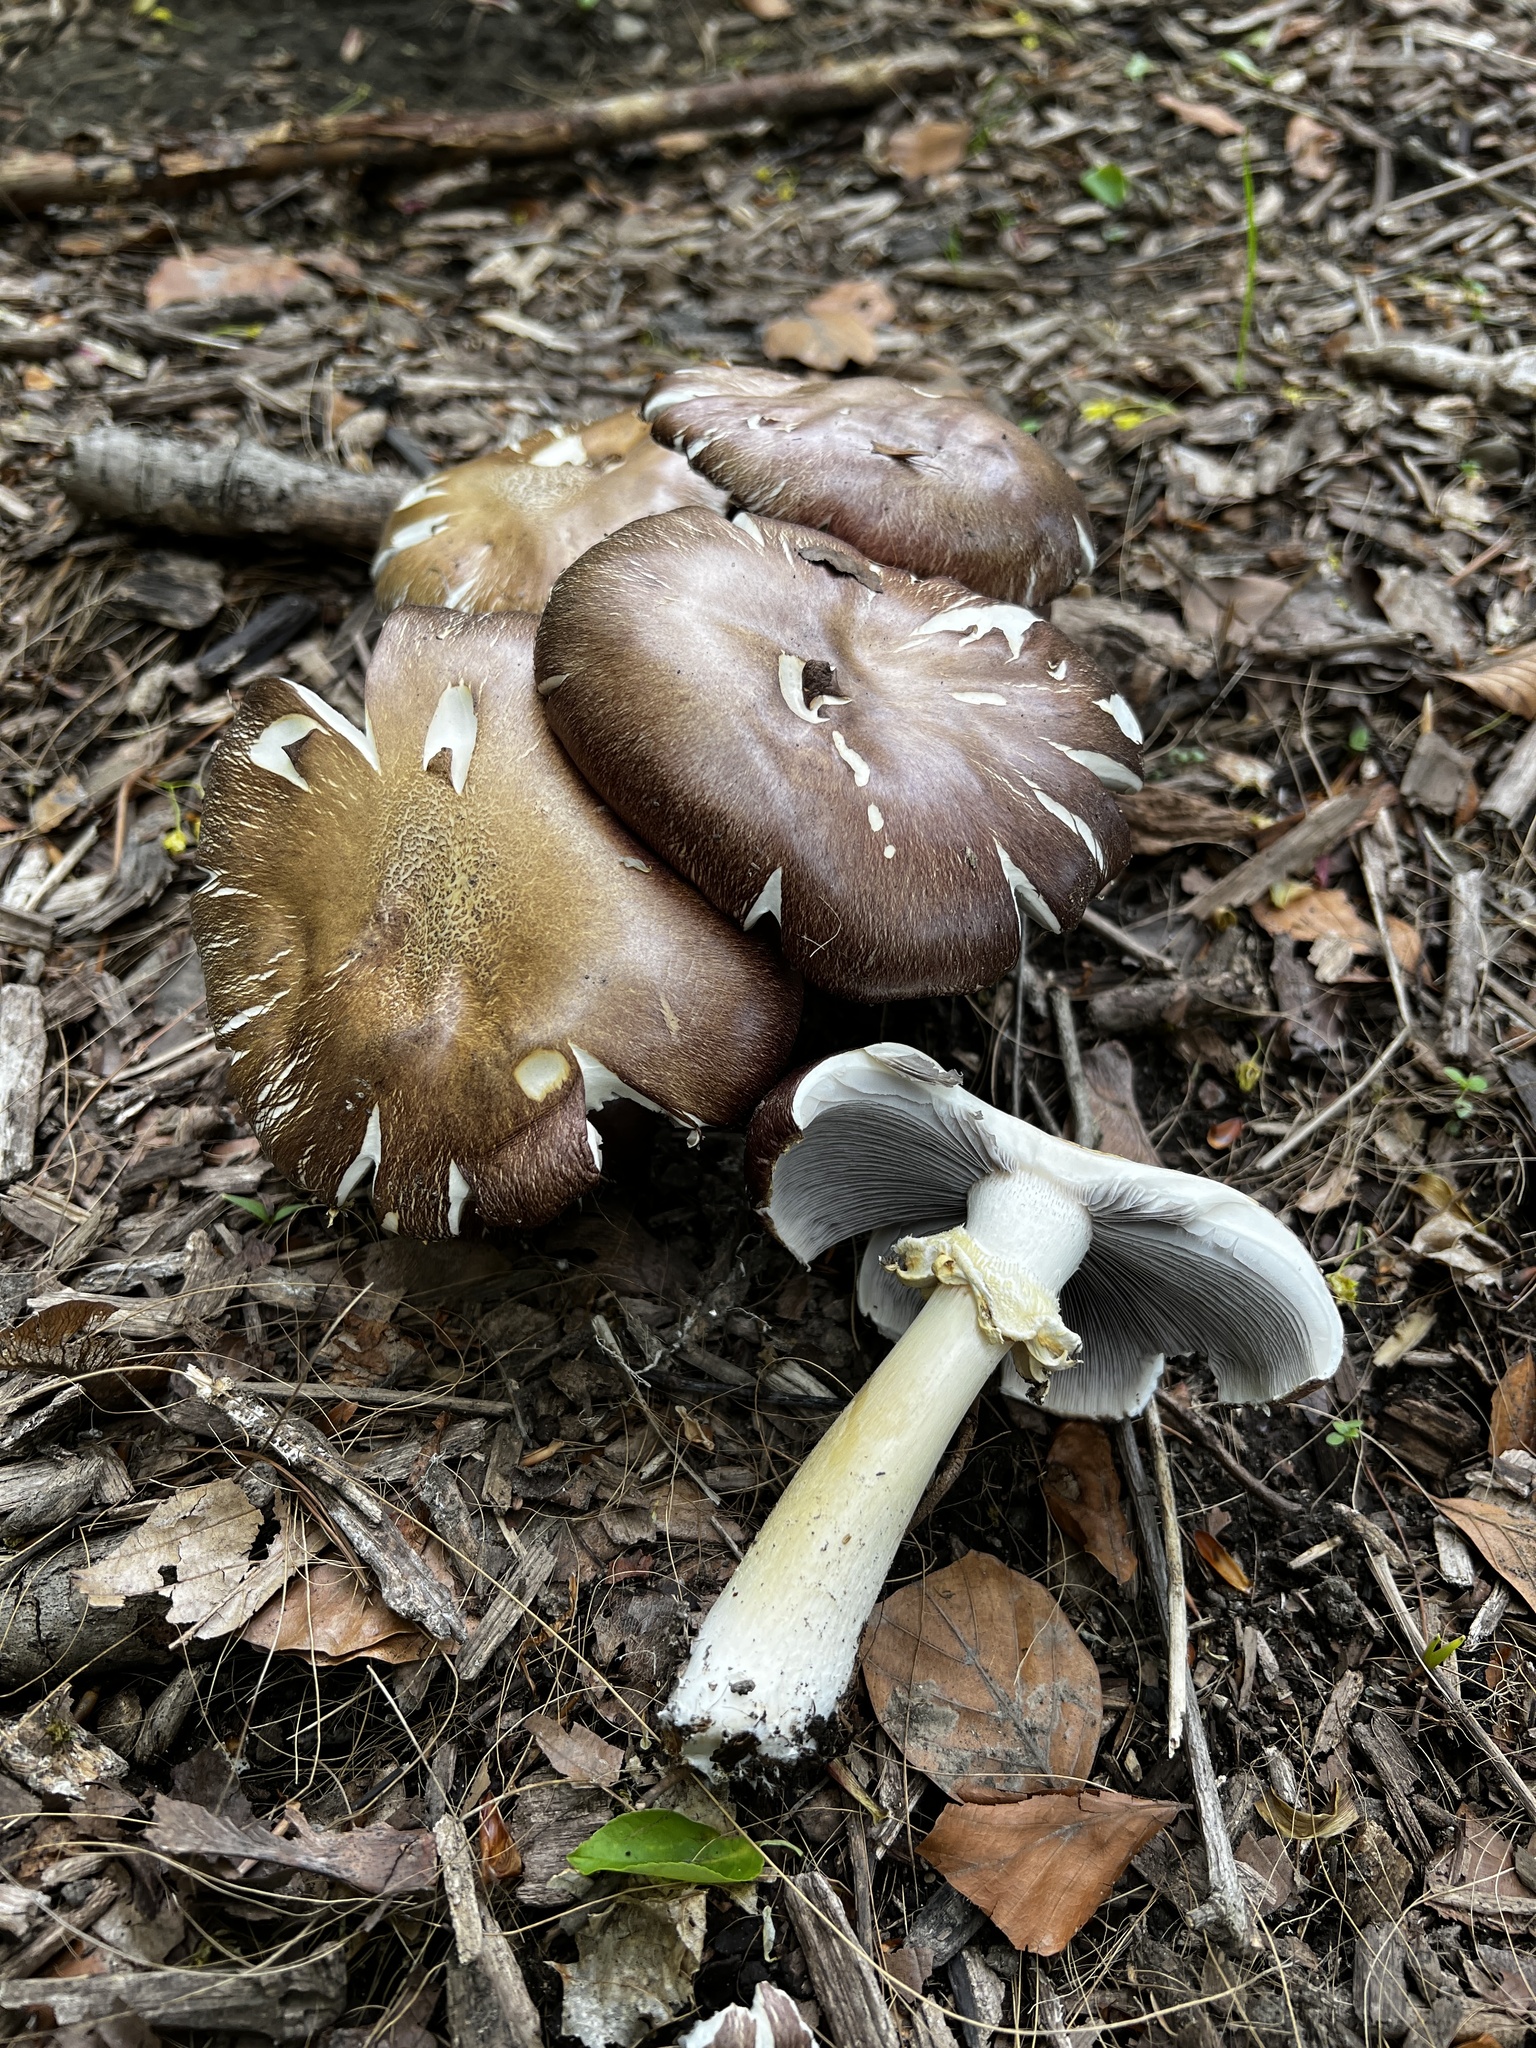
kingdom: Fungi
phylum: Basidiomycota
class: Agaricomycetes
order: Agaricales
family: Strophariaceae
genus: Stropharia
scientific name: Stropharia rugosoannulata
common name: Wine roundhead
